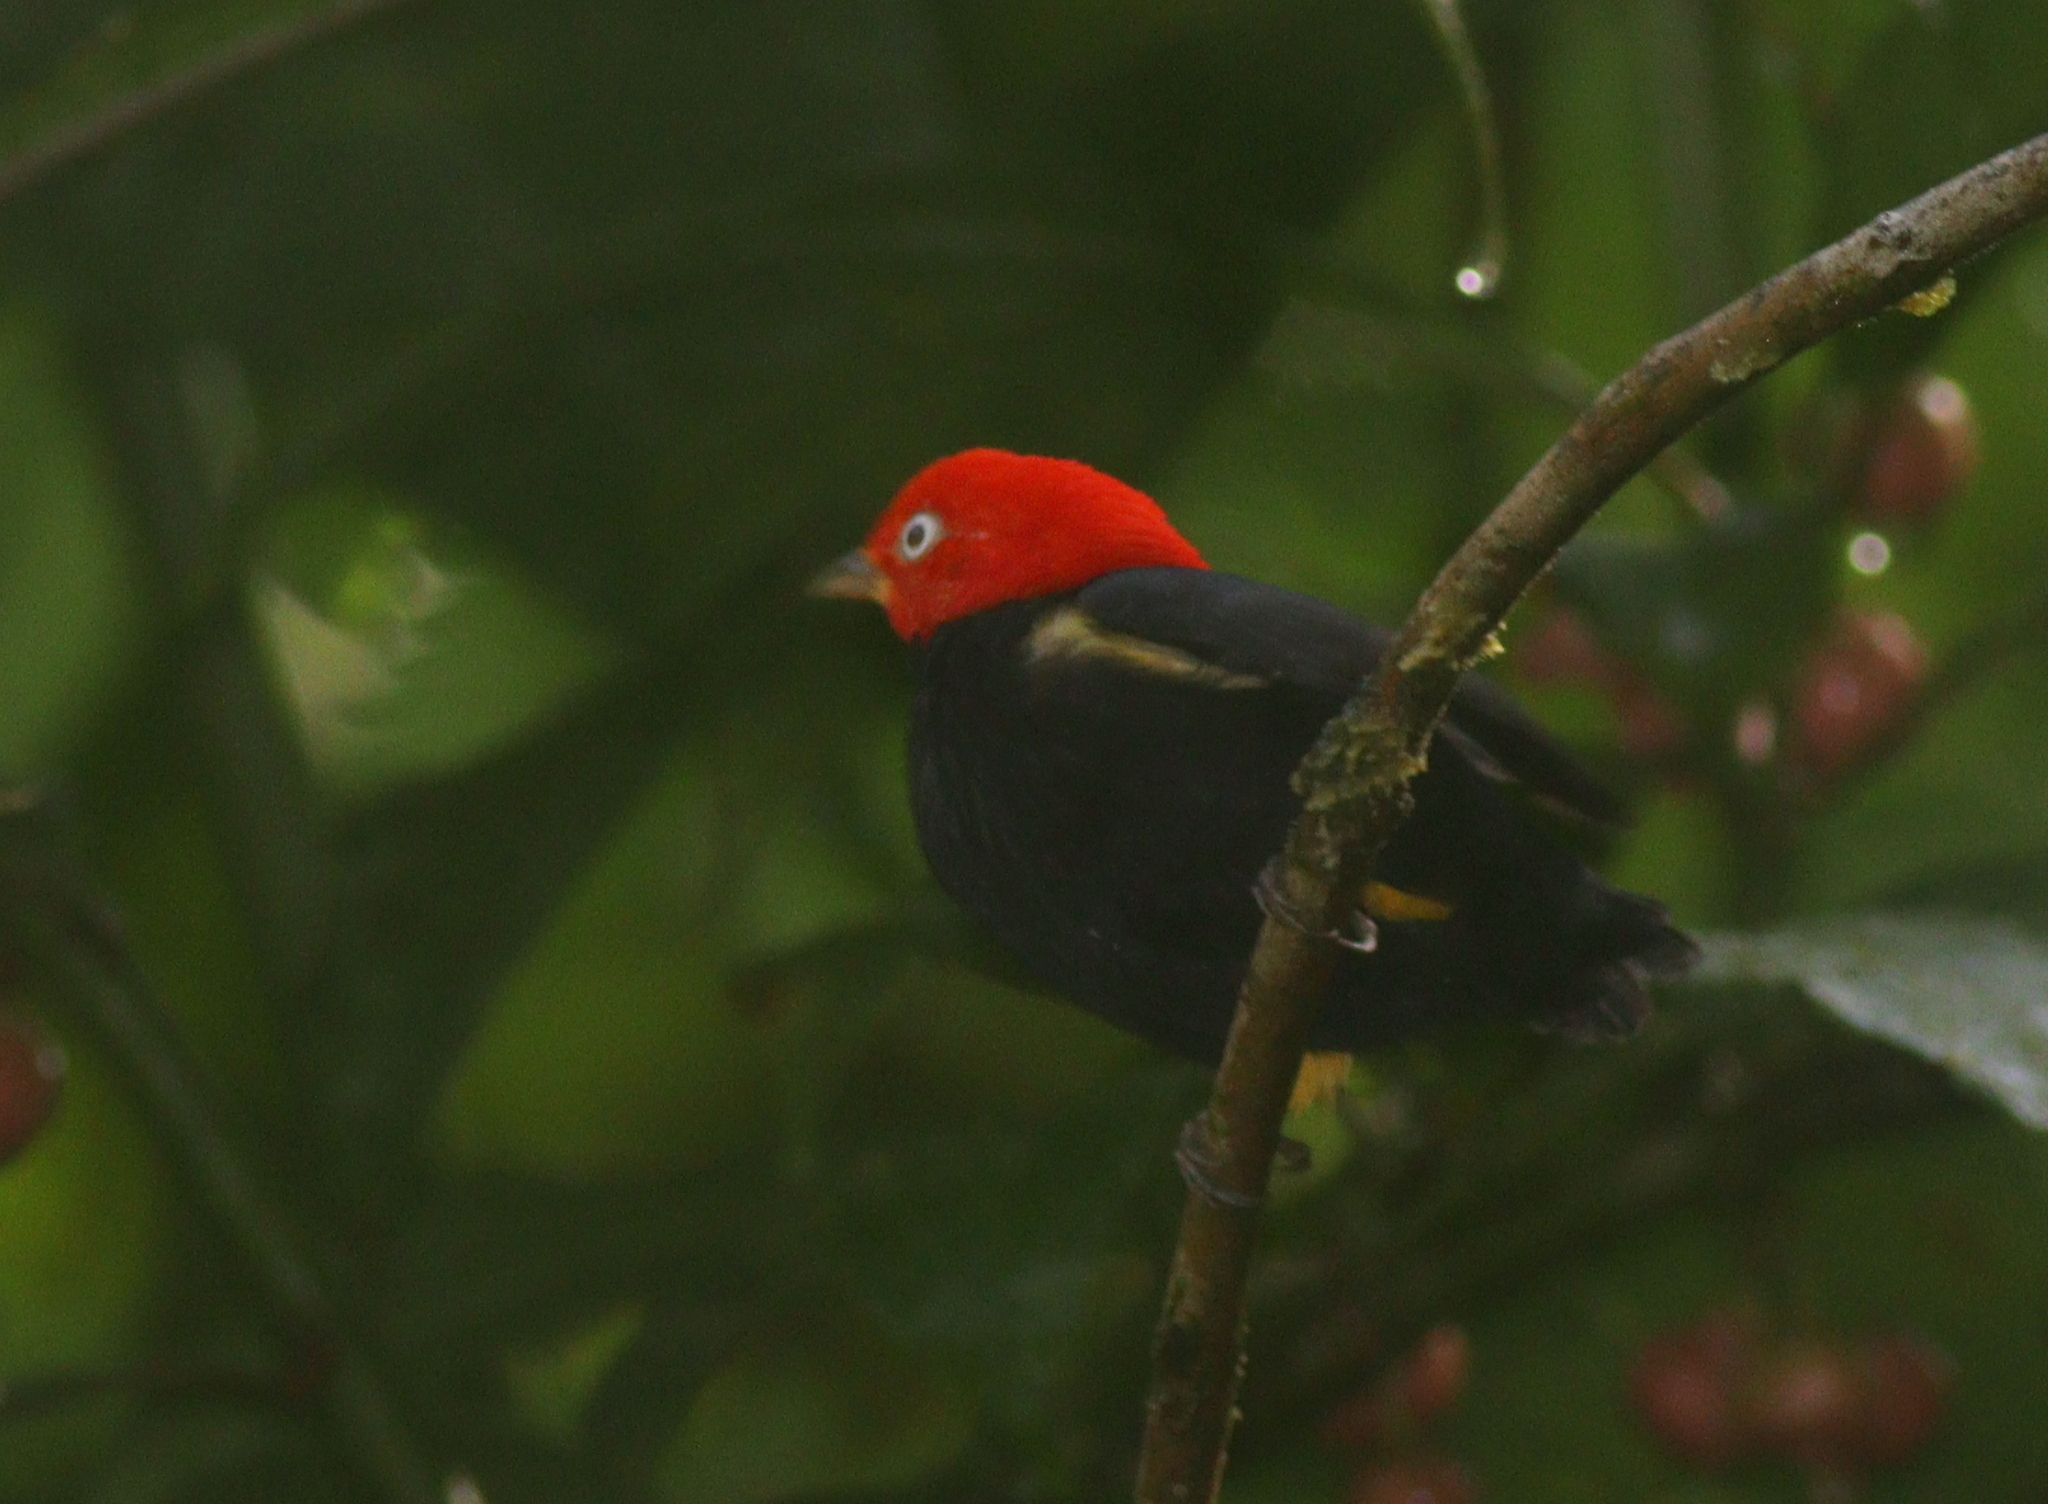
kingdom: Animalia
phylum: Chordata
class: Aves
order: Passeriformes
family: Pipridae
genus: Pipra
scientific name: Pipra mentalis
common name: Red-capped manakin
